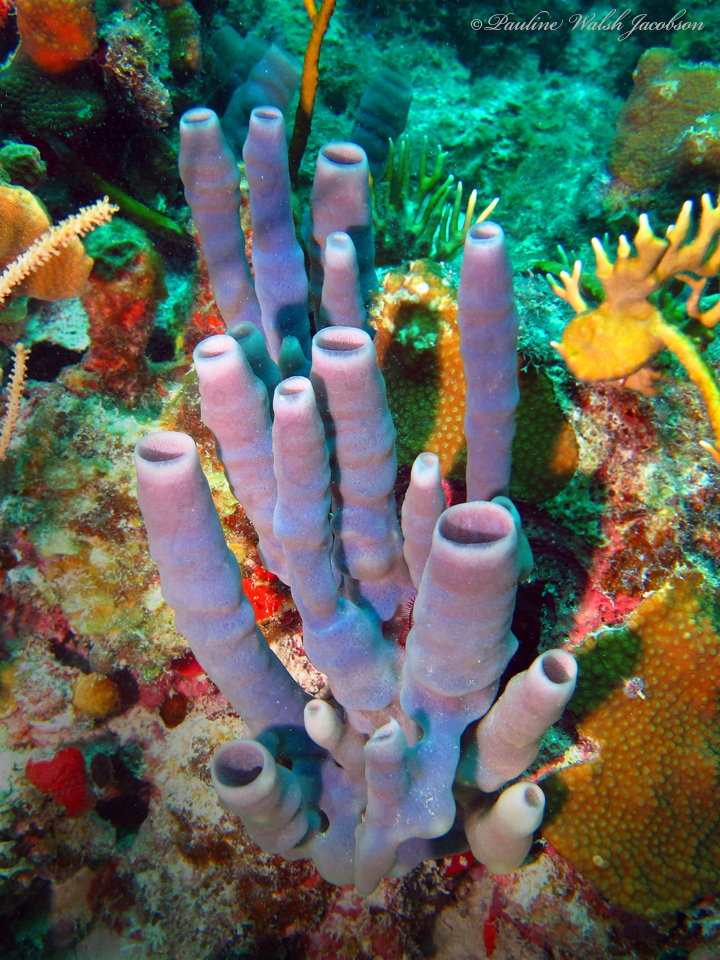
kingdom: Animalia
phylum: Porifera
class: Demospongiae
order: Haplosclerida
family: Callyspongiidae
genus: Callyspongia
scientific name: Callyspongia fallax
